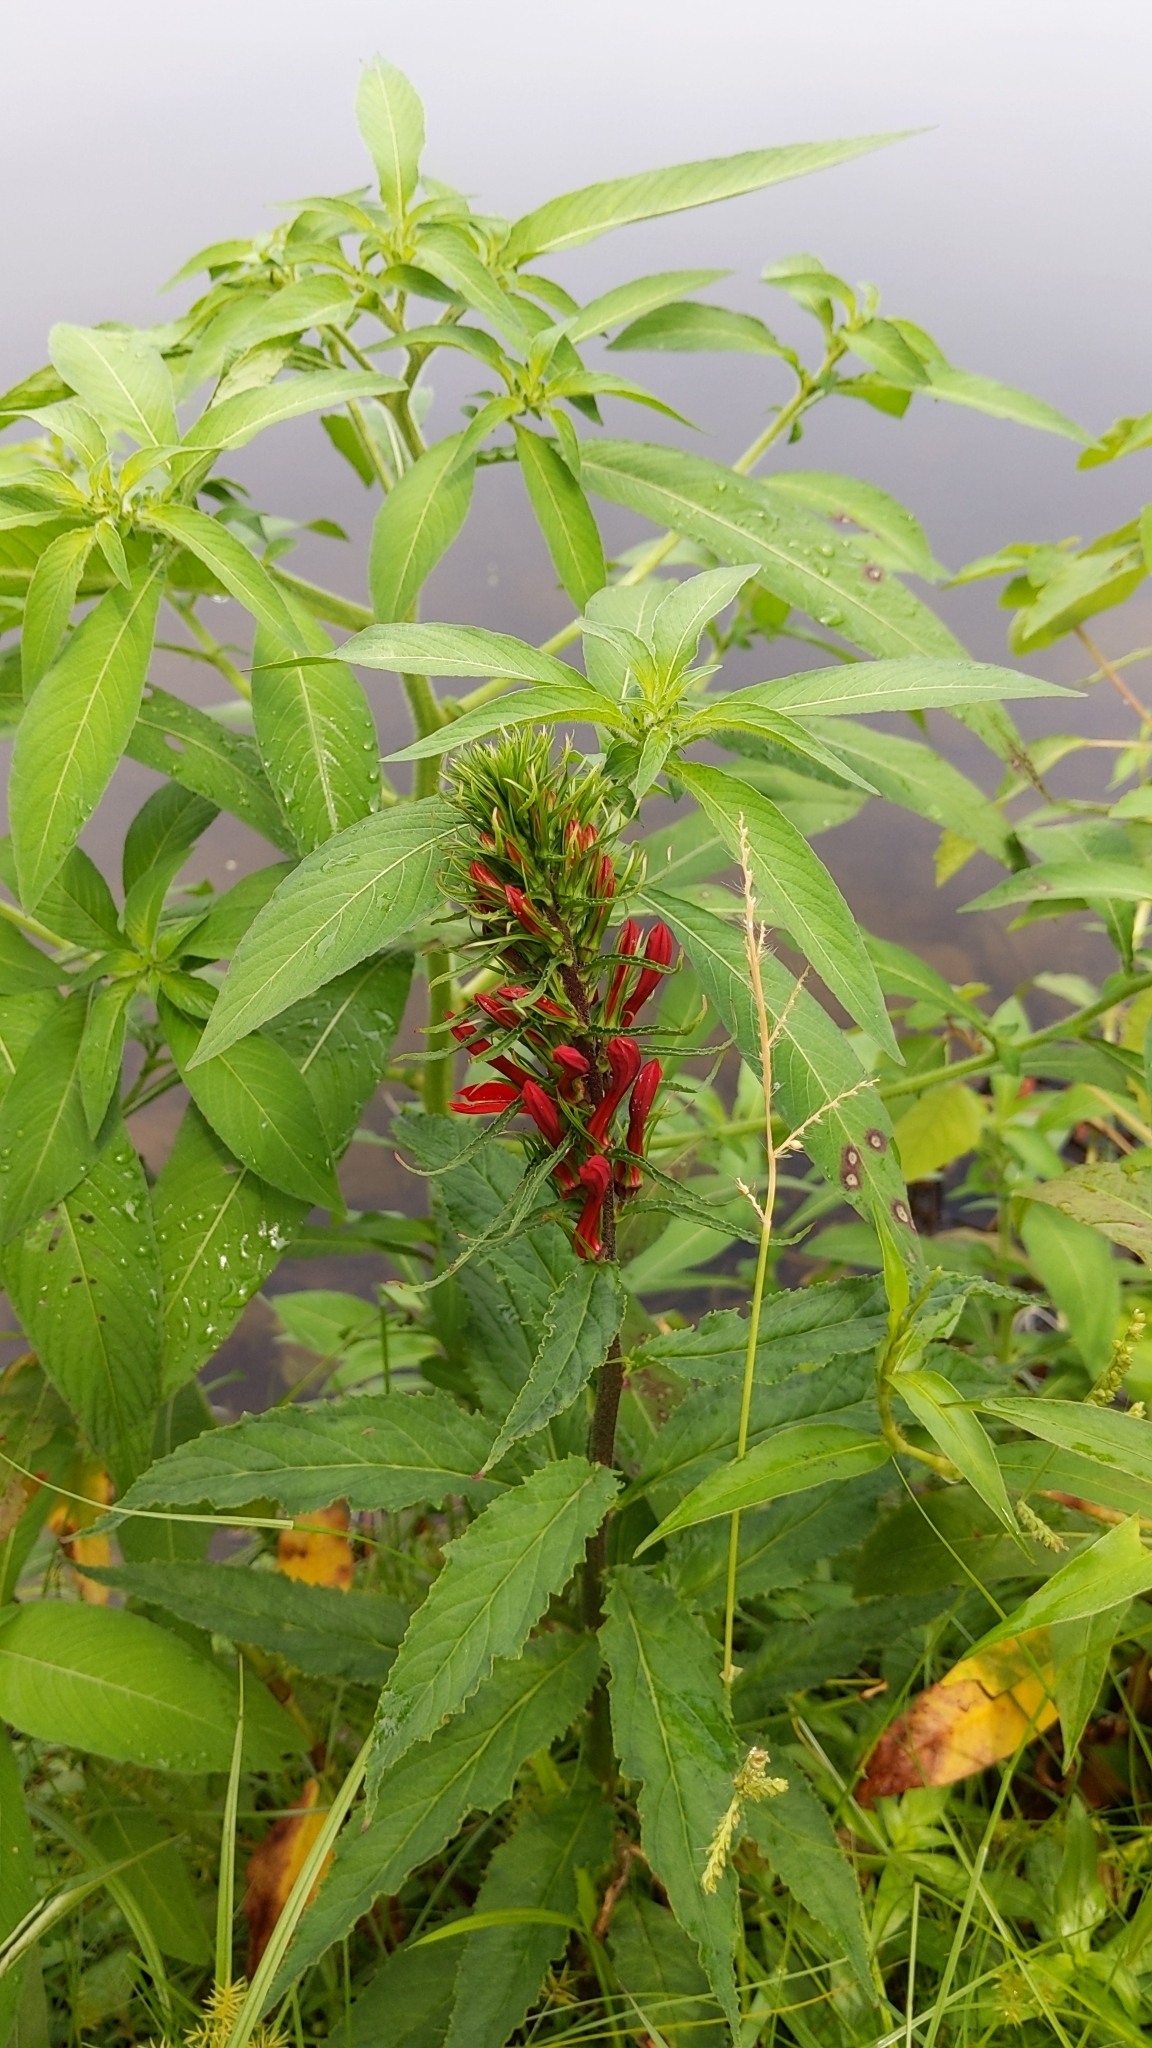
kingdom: Plantae
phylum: Tracheophyta
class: Magnoliopsida
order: Asterales
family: Campanulaceae
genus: Lobelia
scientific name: Lobelia cardinalis
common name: Cardinal flower
